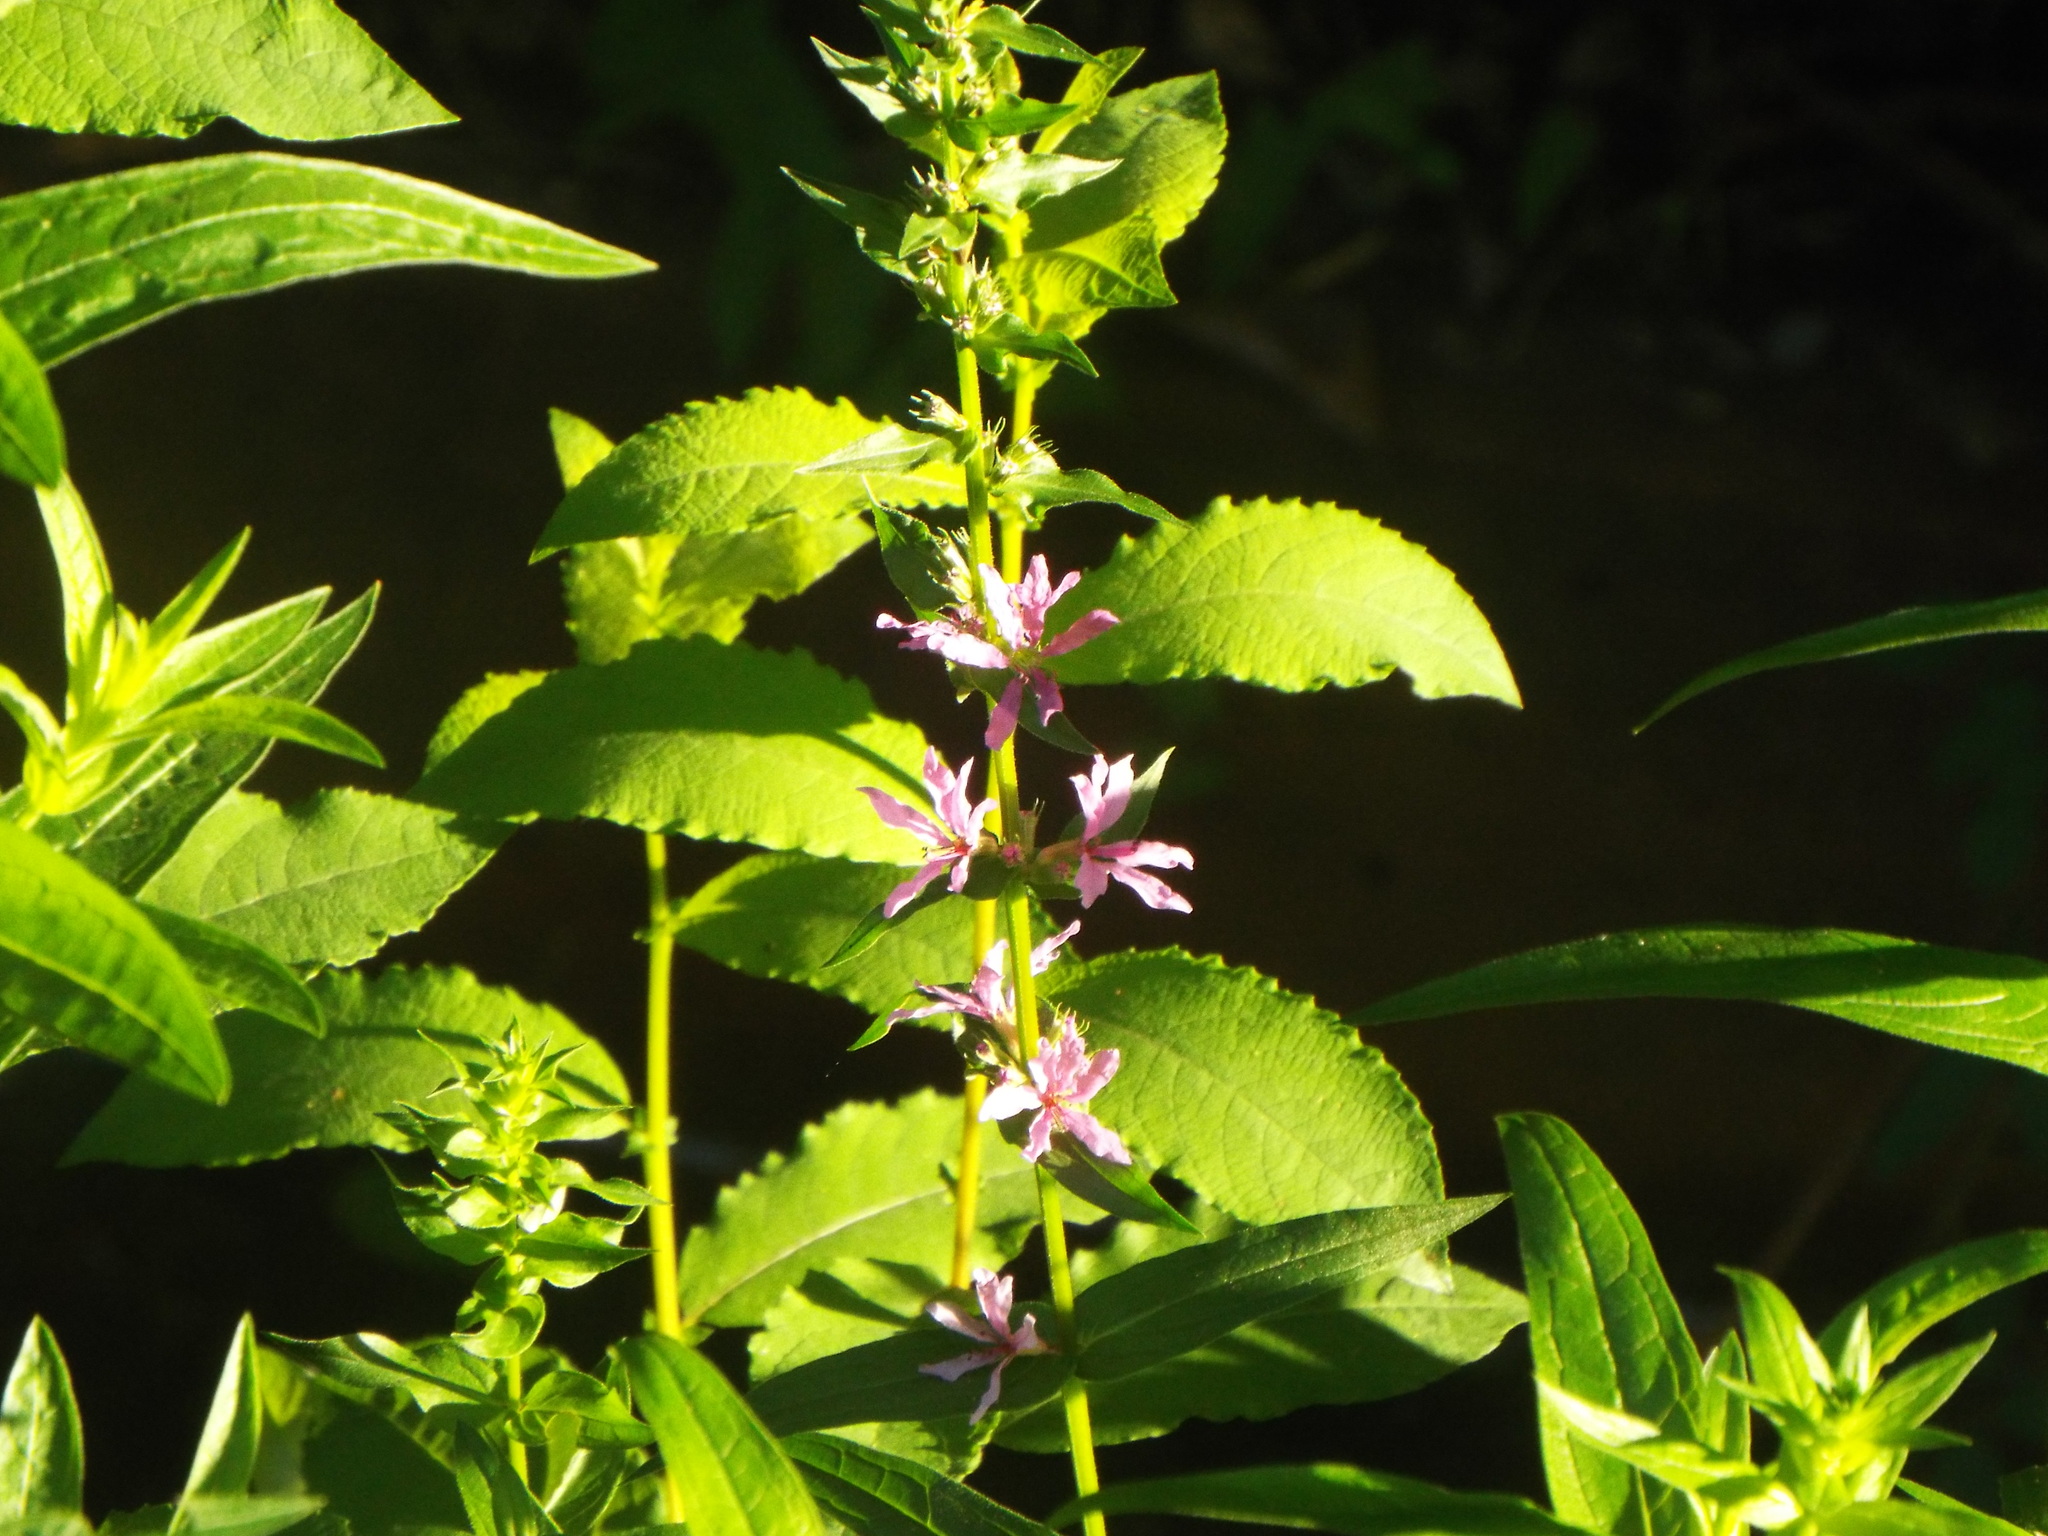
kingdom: Plantae
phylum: Tracheophyta
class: Magnoliopsida
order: Myrtales
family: Lythraceae
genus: Lythrum
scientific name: Lythrum salicaria
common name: Purple loosestrife
